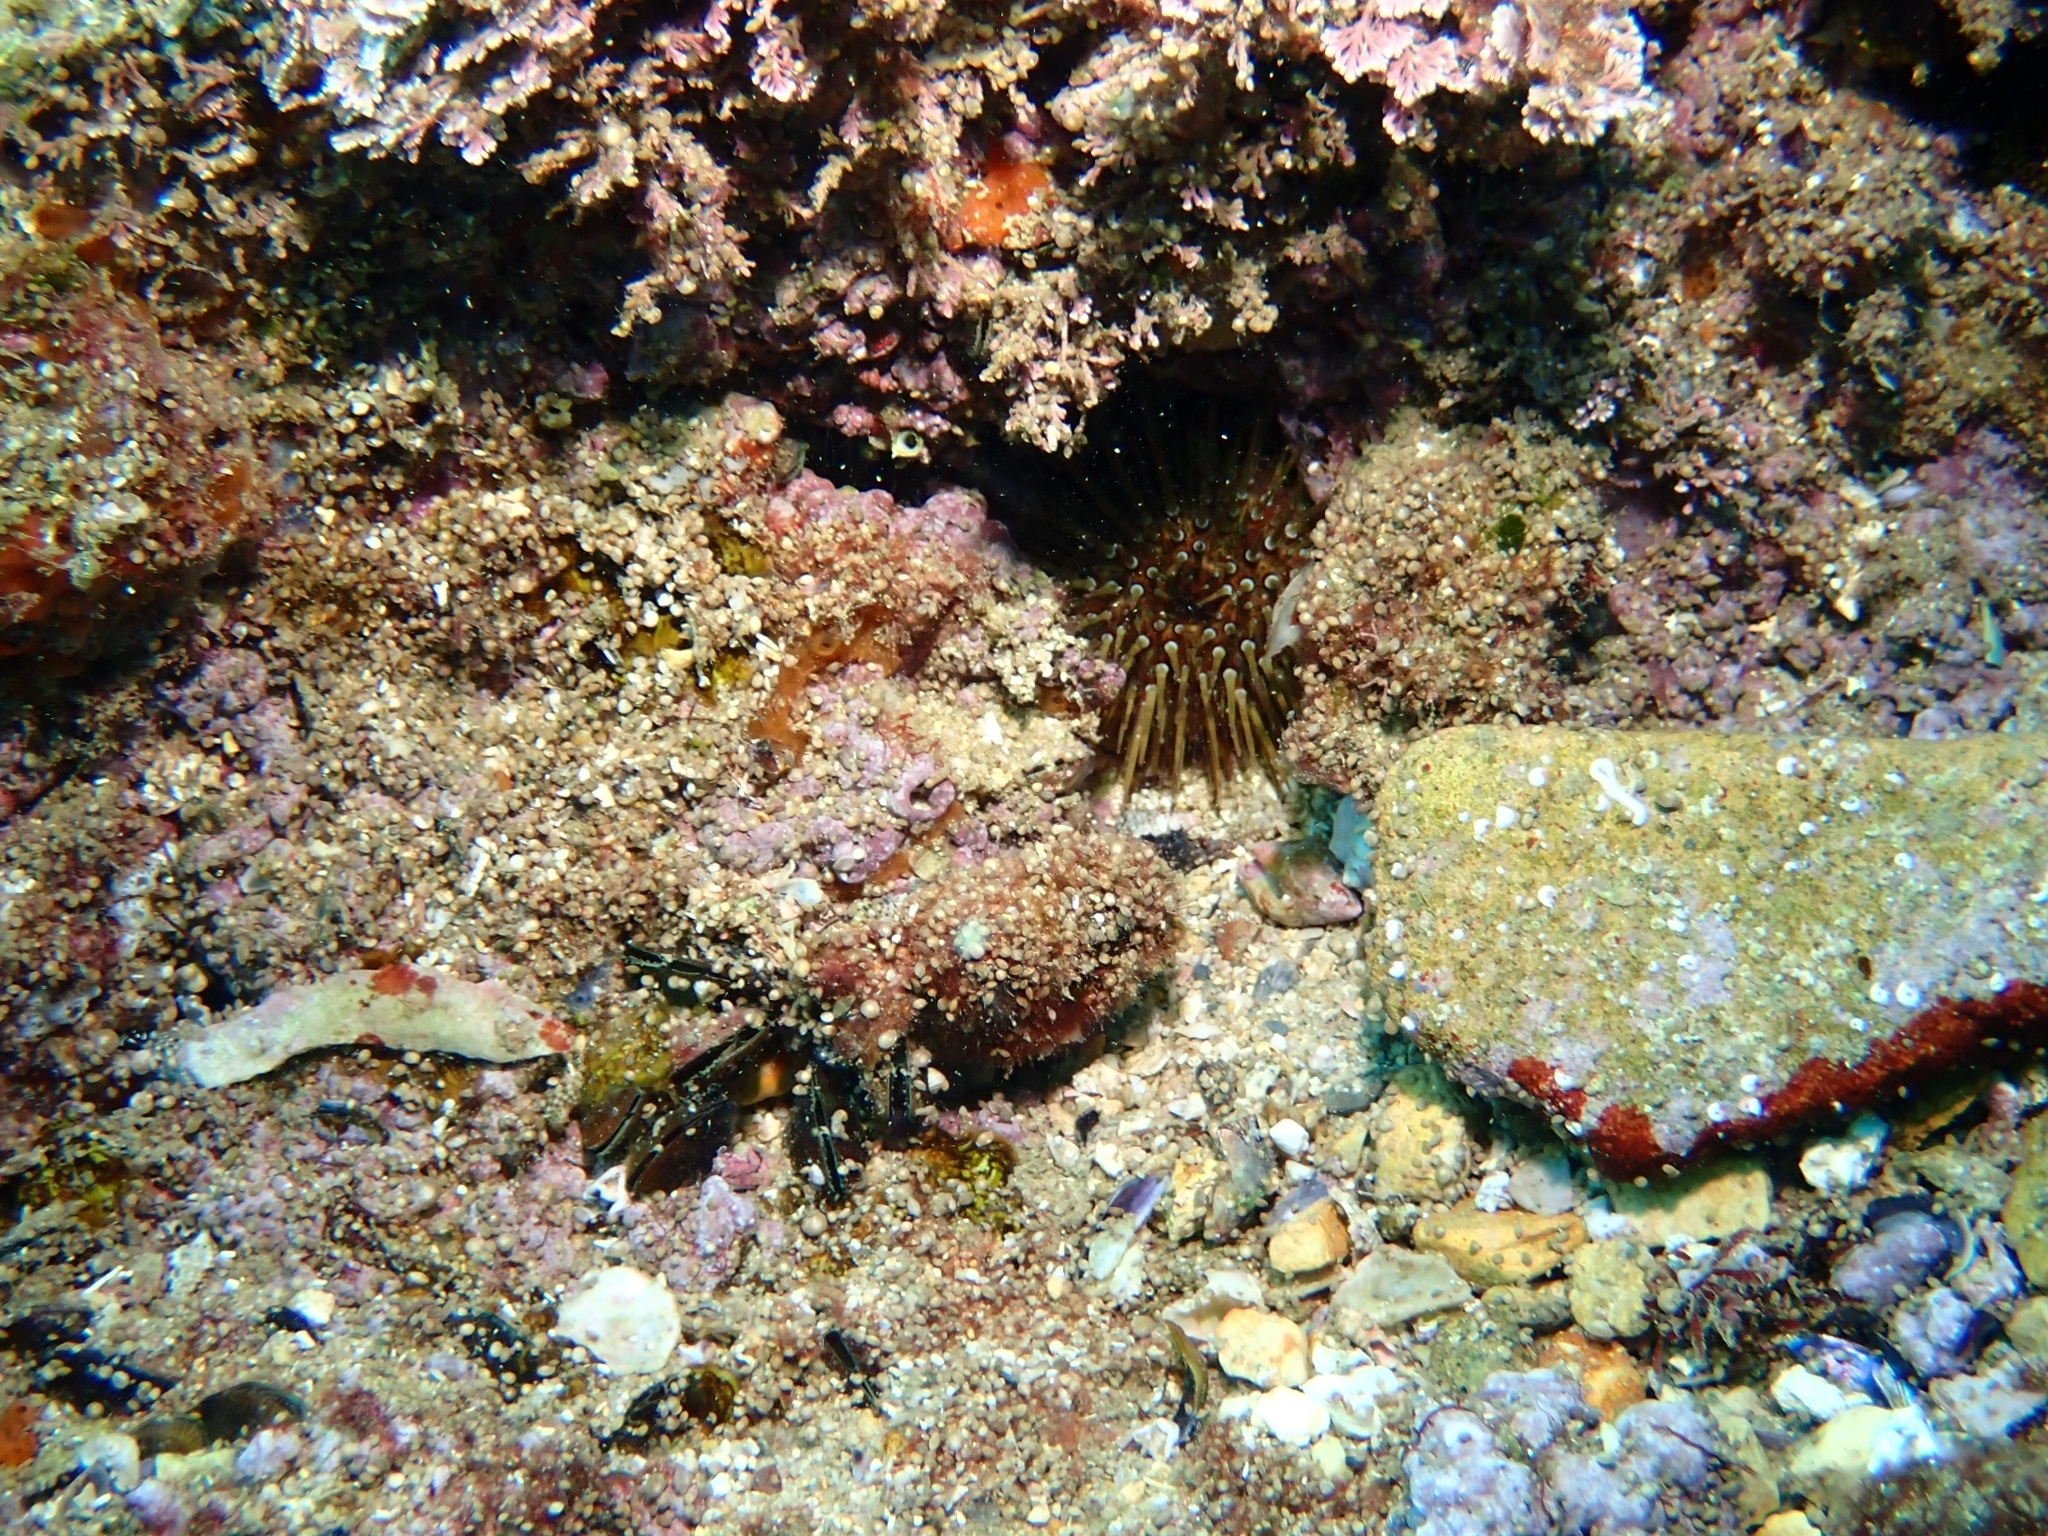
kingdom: Animalia
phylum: Echinodermata
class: Echinoidea
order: Camarodonta
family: Parechinidae
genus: Paracentrotus
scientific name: Paracentrotus lividus
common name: Purple sea urchin
